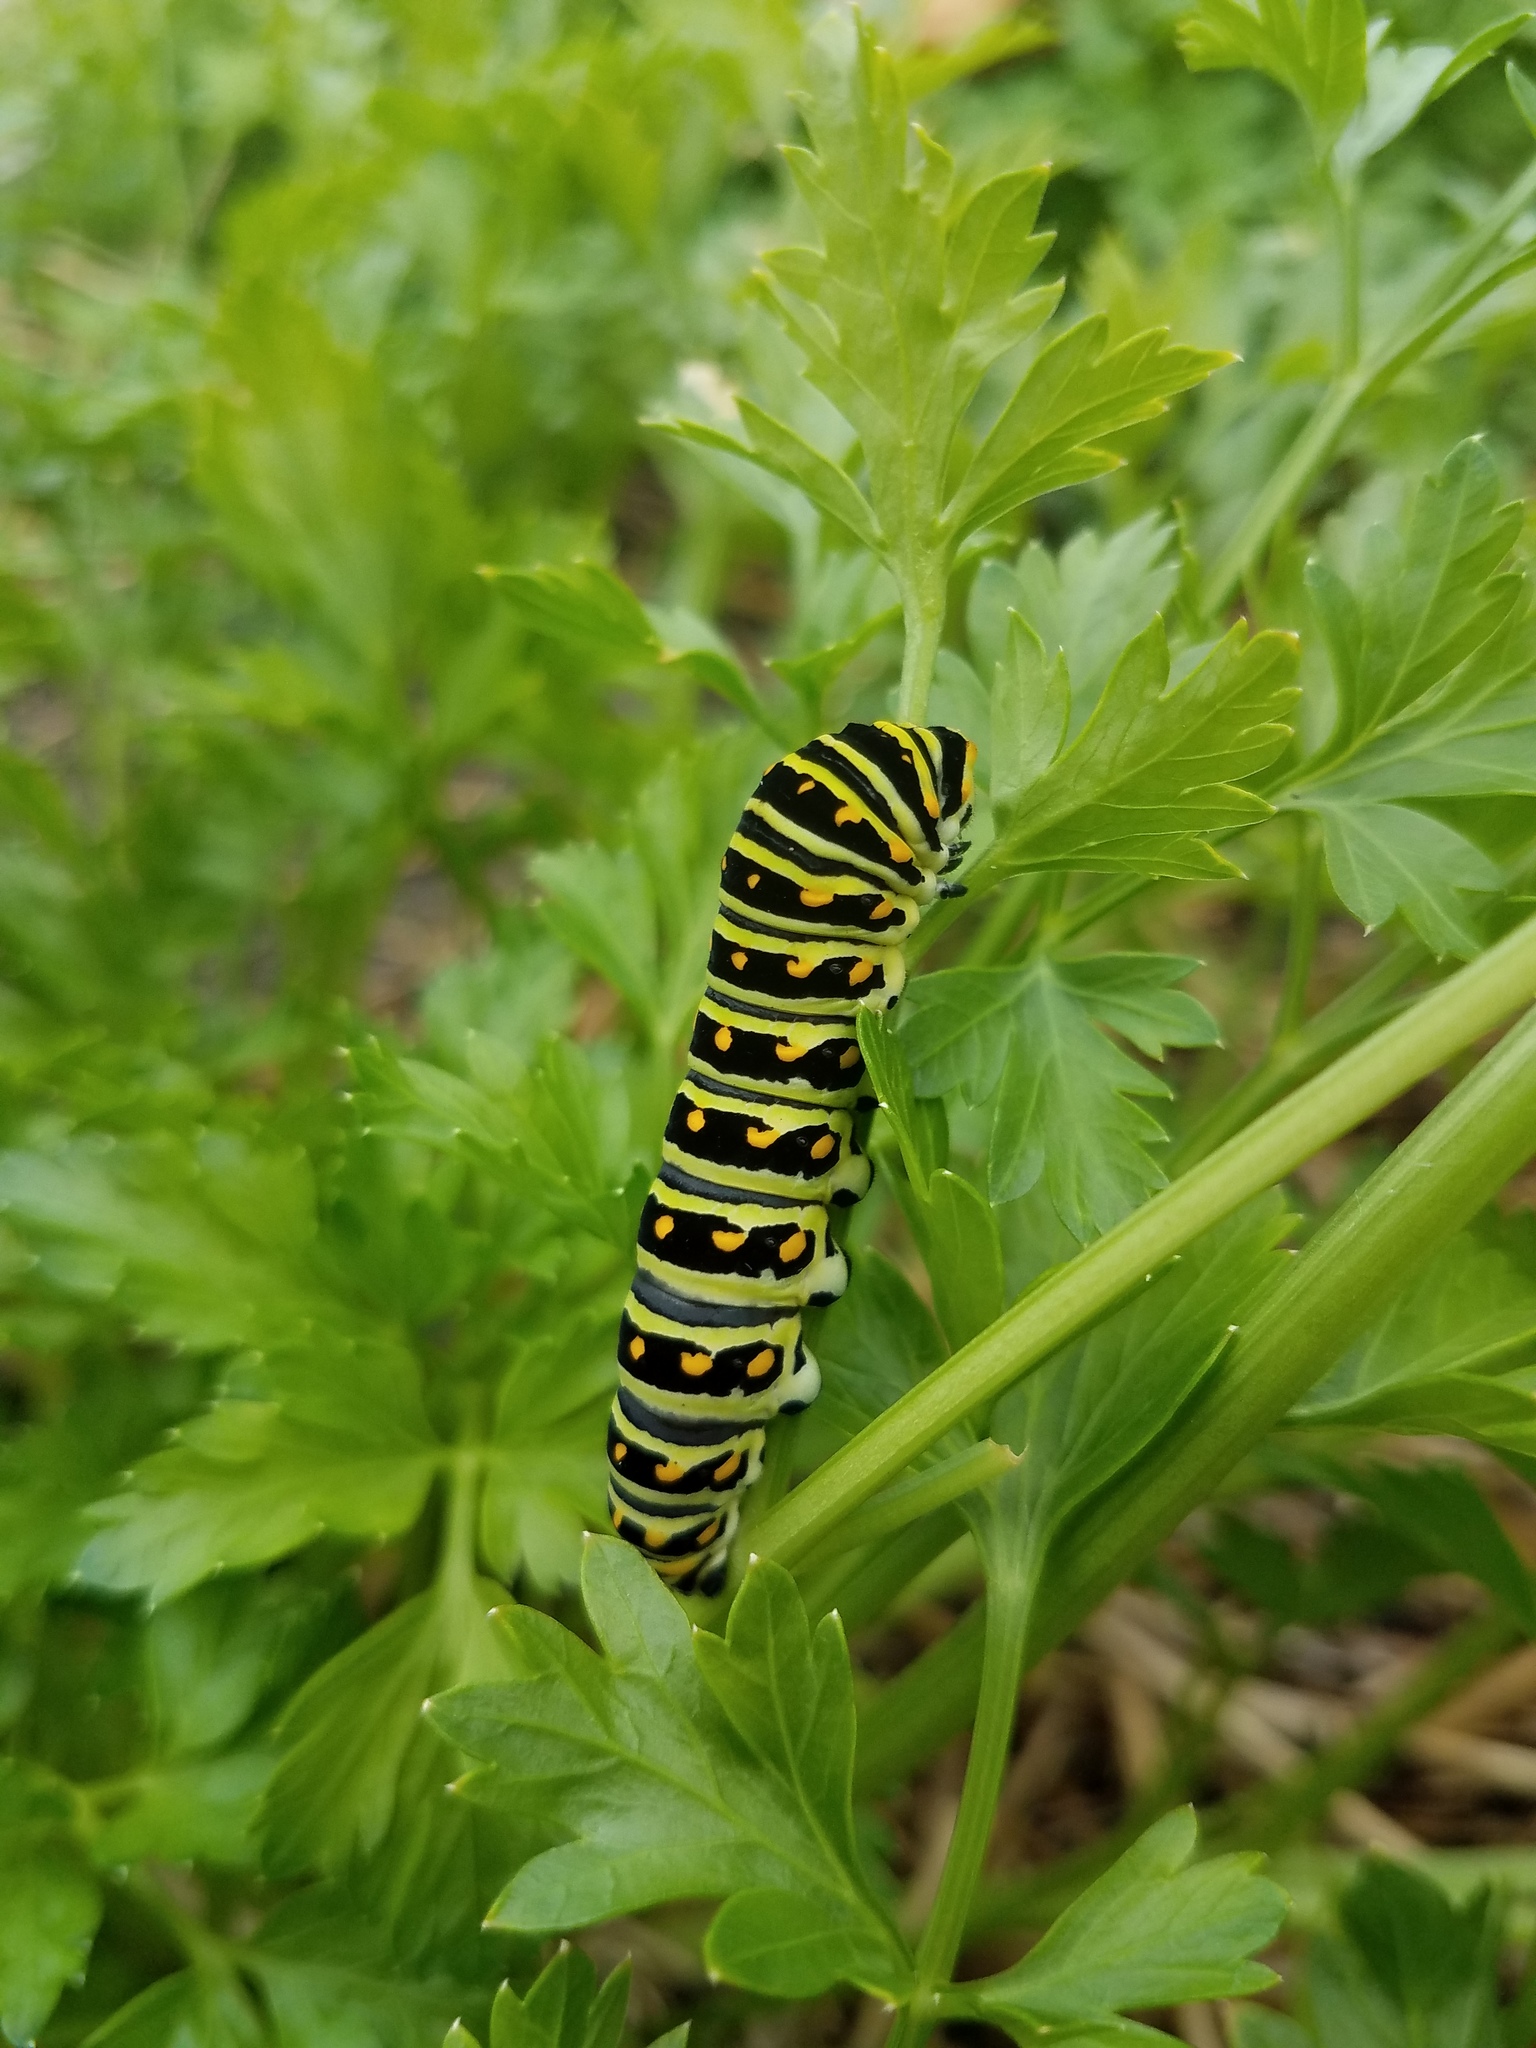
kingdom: Animalia
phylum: Arthropoda
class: Insecta
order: Lepidoptera
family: Papilionidae
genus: Papilio
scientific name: Papilio polyxenes
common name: Black swallowtail
